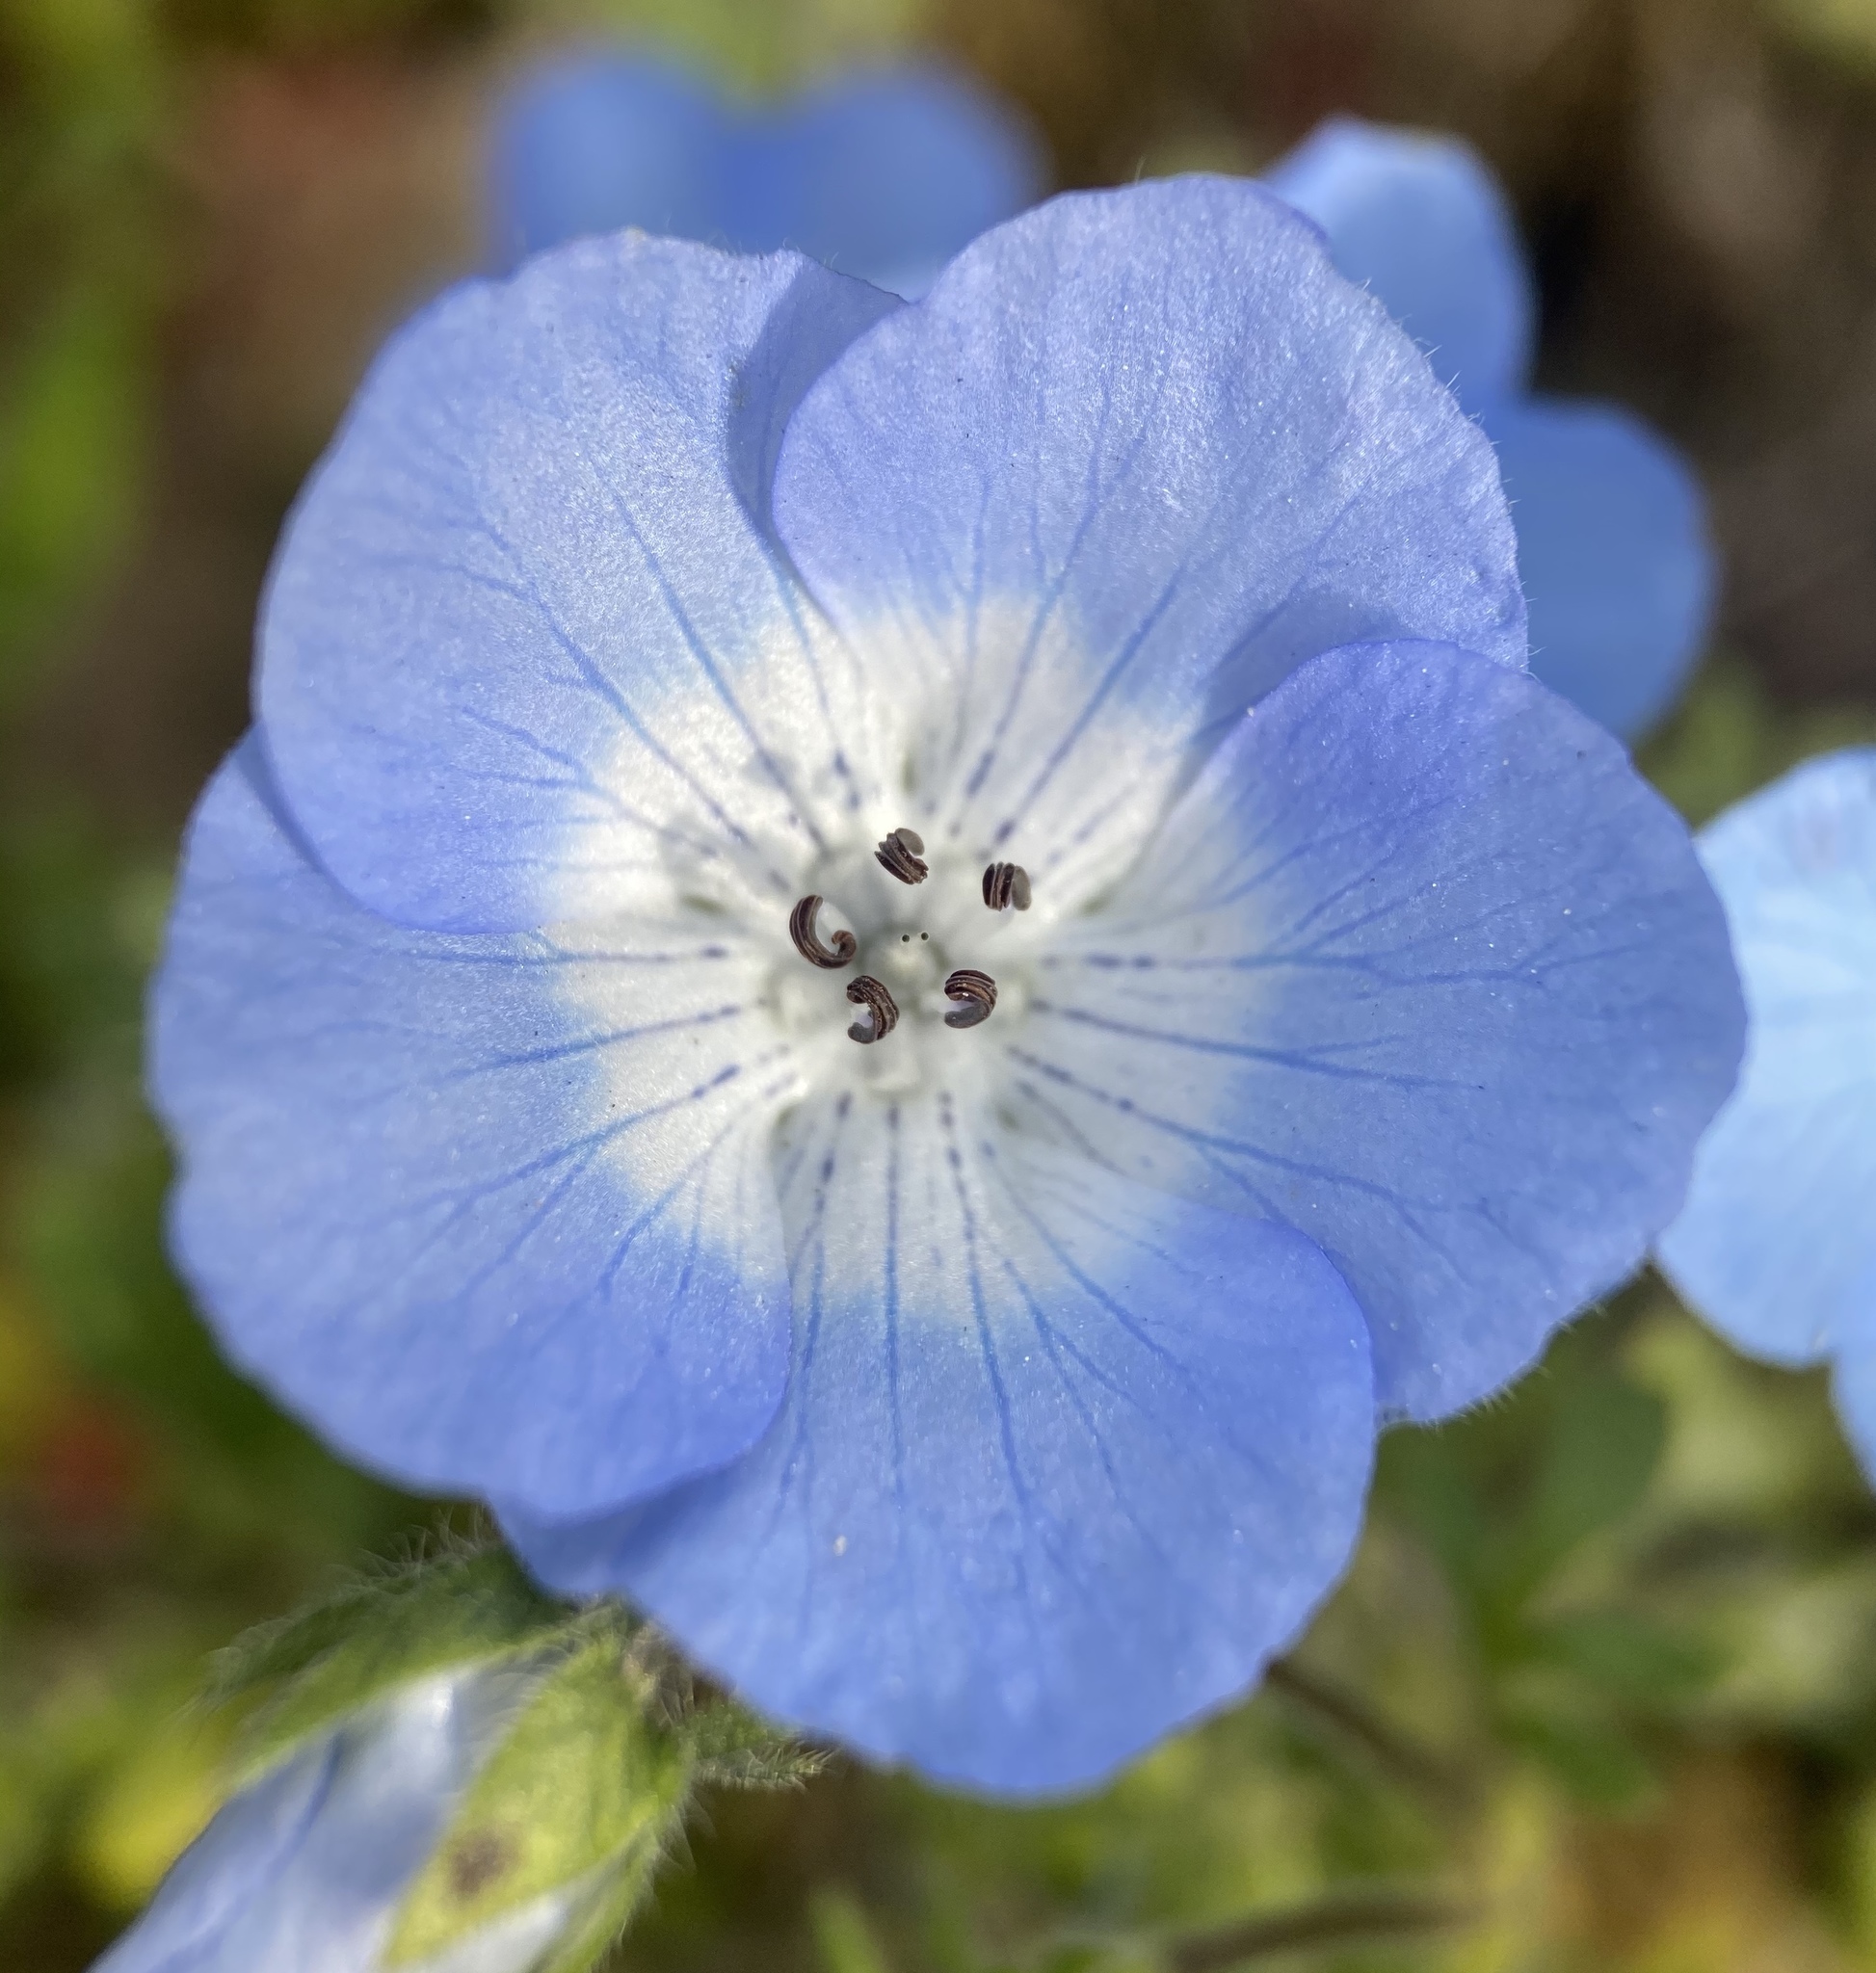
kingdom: Plantae
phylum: Tracheophyta
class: Magnoliopsida
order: Boraginales
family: Hydrophyllaceae
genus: Nemophila
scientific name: Nemophila menziesii
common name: Baby's-blue-eyes
